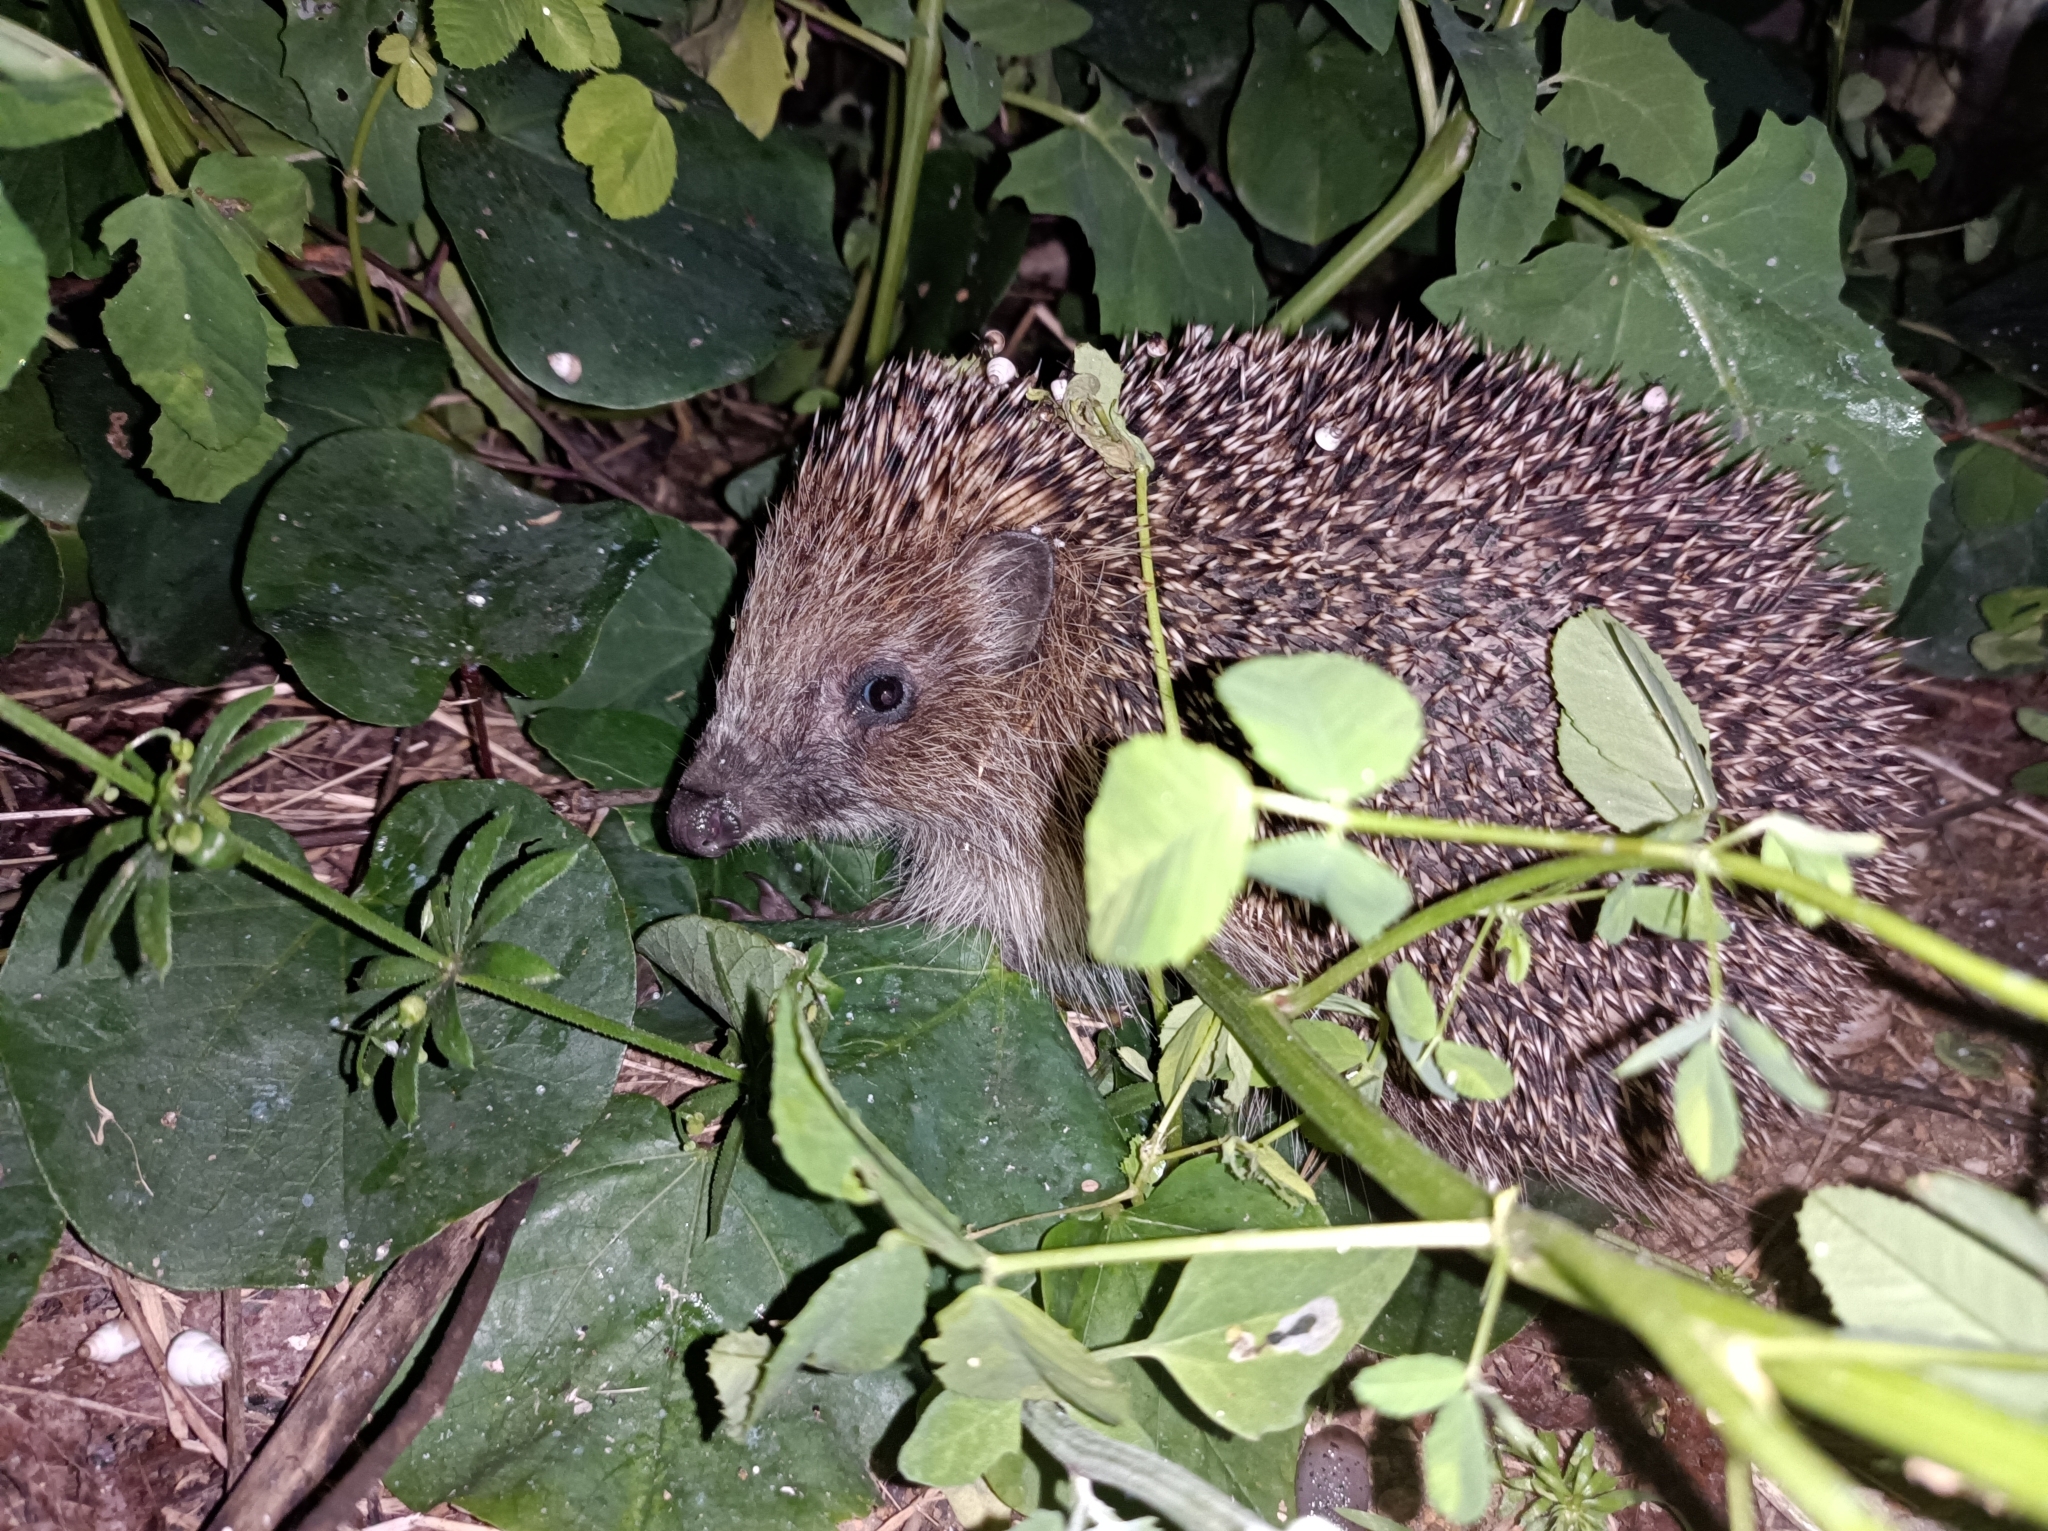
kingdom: Animalia
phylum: Chordata
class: Mammalia
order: Erinaceomorpha
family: Erinaceidae
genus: Erinaceus
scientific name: Erinaceus roumanicus
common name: Northern white-breasted hedgehog
